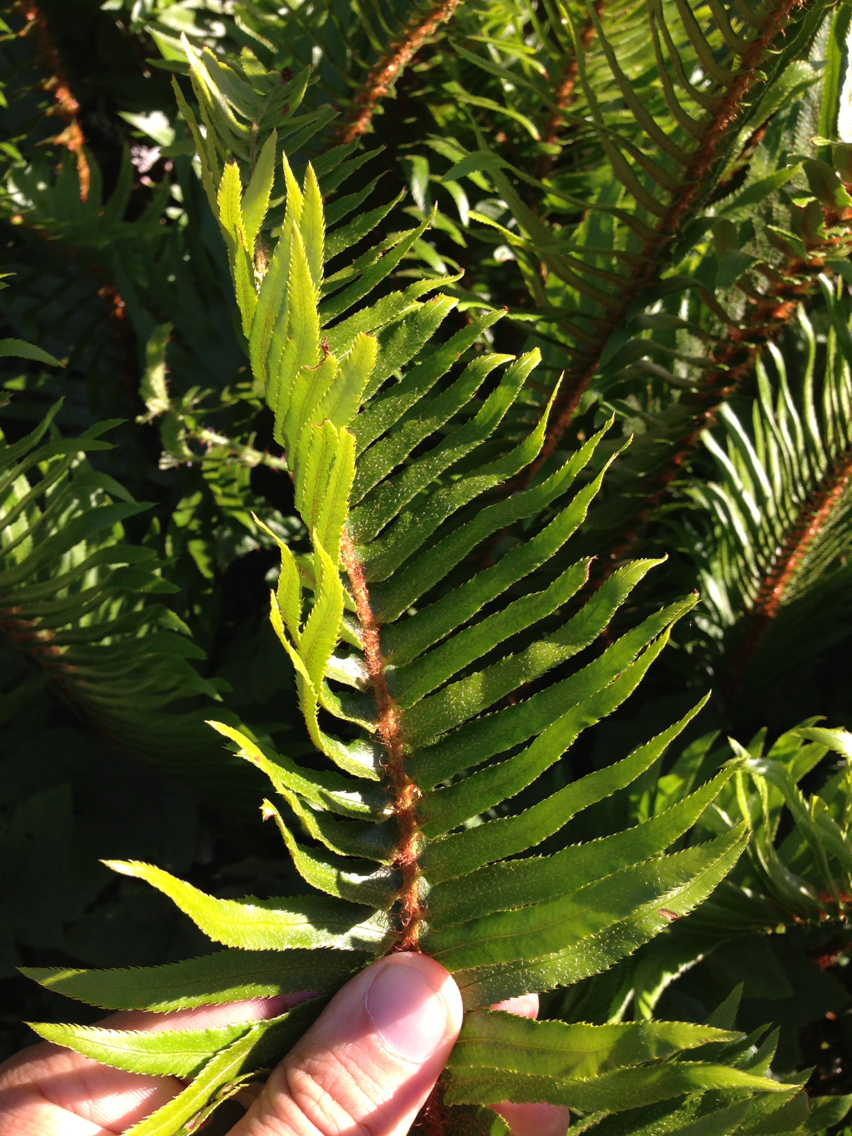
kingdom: Plantae
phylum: Tracheophyta
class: Polypodiopsida
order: Polypodiales
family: Dryopteridaceae
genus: Polystichum
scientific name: Polystichum munitum
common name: Western sword-fern
